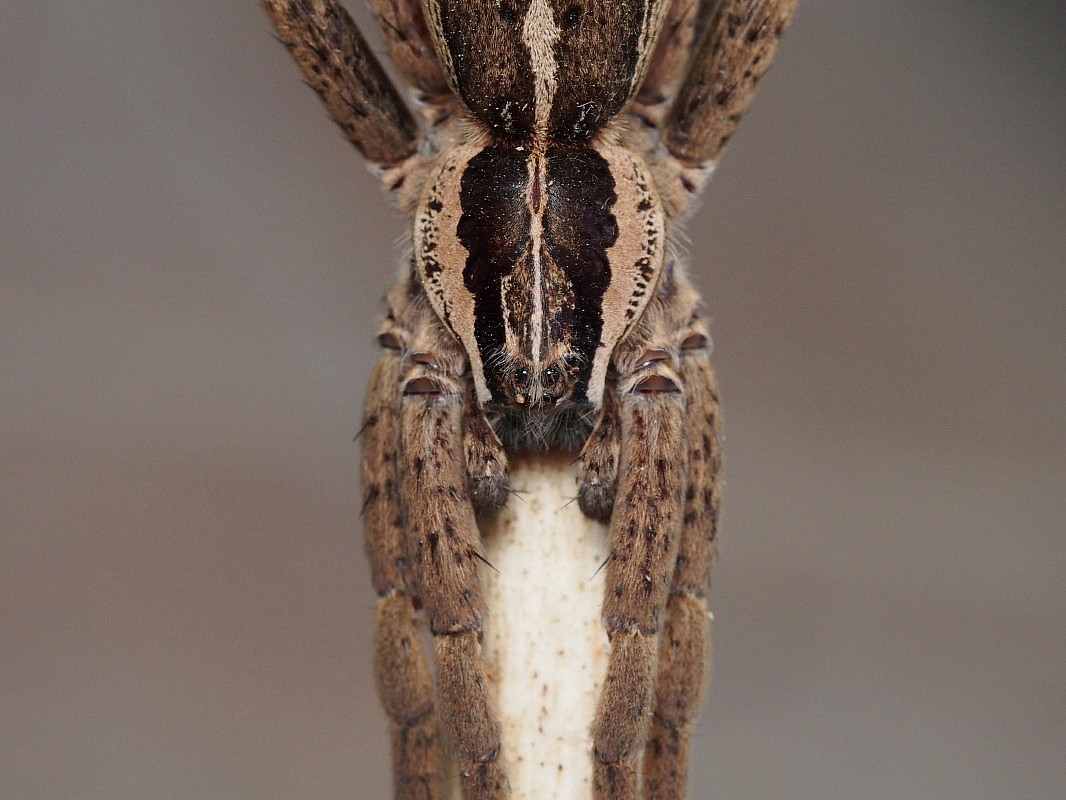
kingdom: Animalia
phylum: Arthropoda
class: Arachnida
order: Araneae
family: Pisauridae
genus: Dolomedes
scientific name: Dolomedes minor
